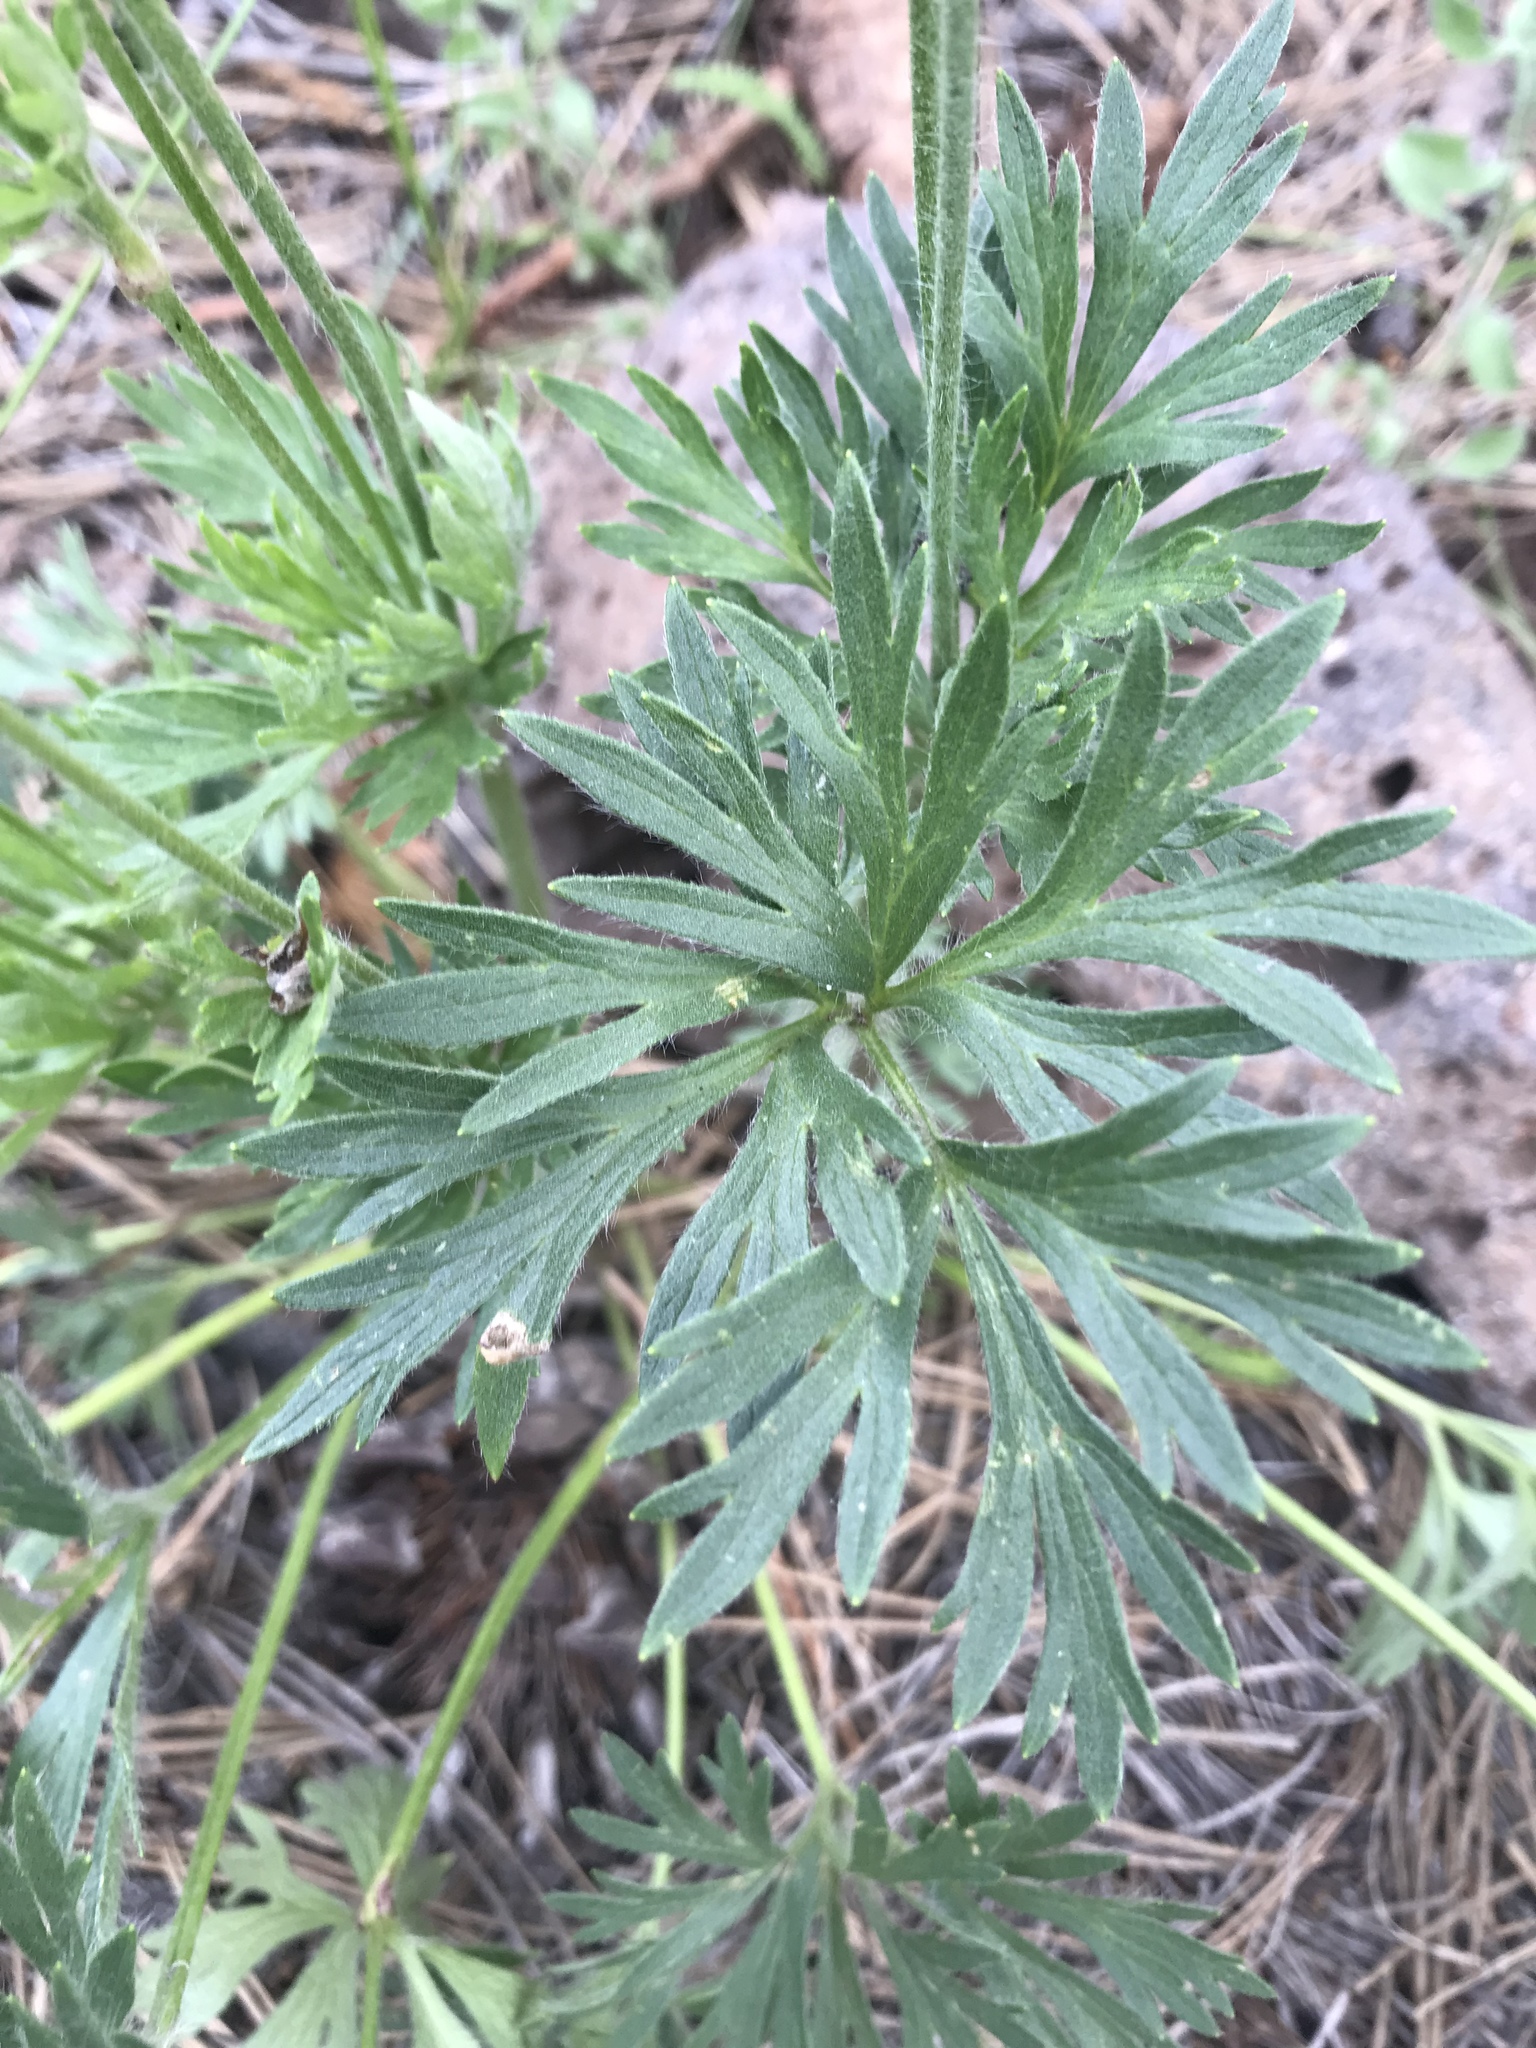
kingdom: Plantae
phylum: Tracheophyta
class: Magnoliopsida
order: Ranunculales
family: Ranunculaceae
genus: Anemone
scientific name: Anemone multifida
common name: Bird's-foot anemone
